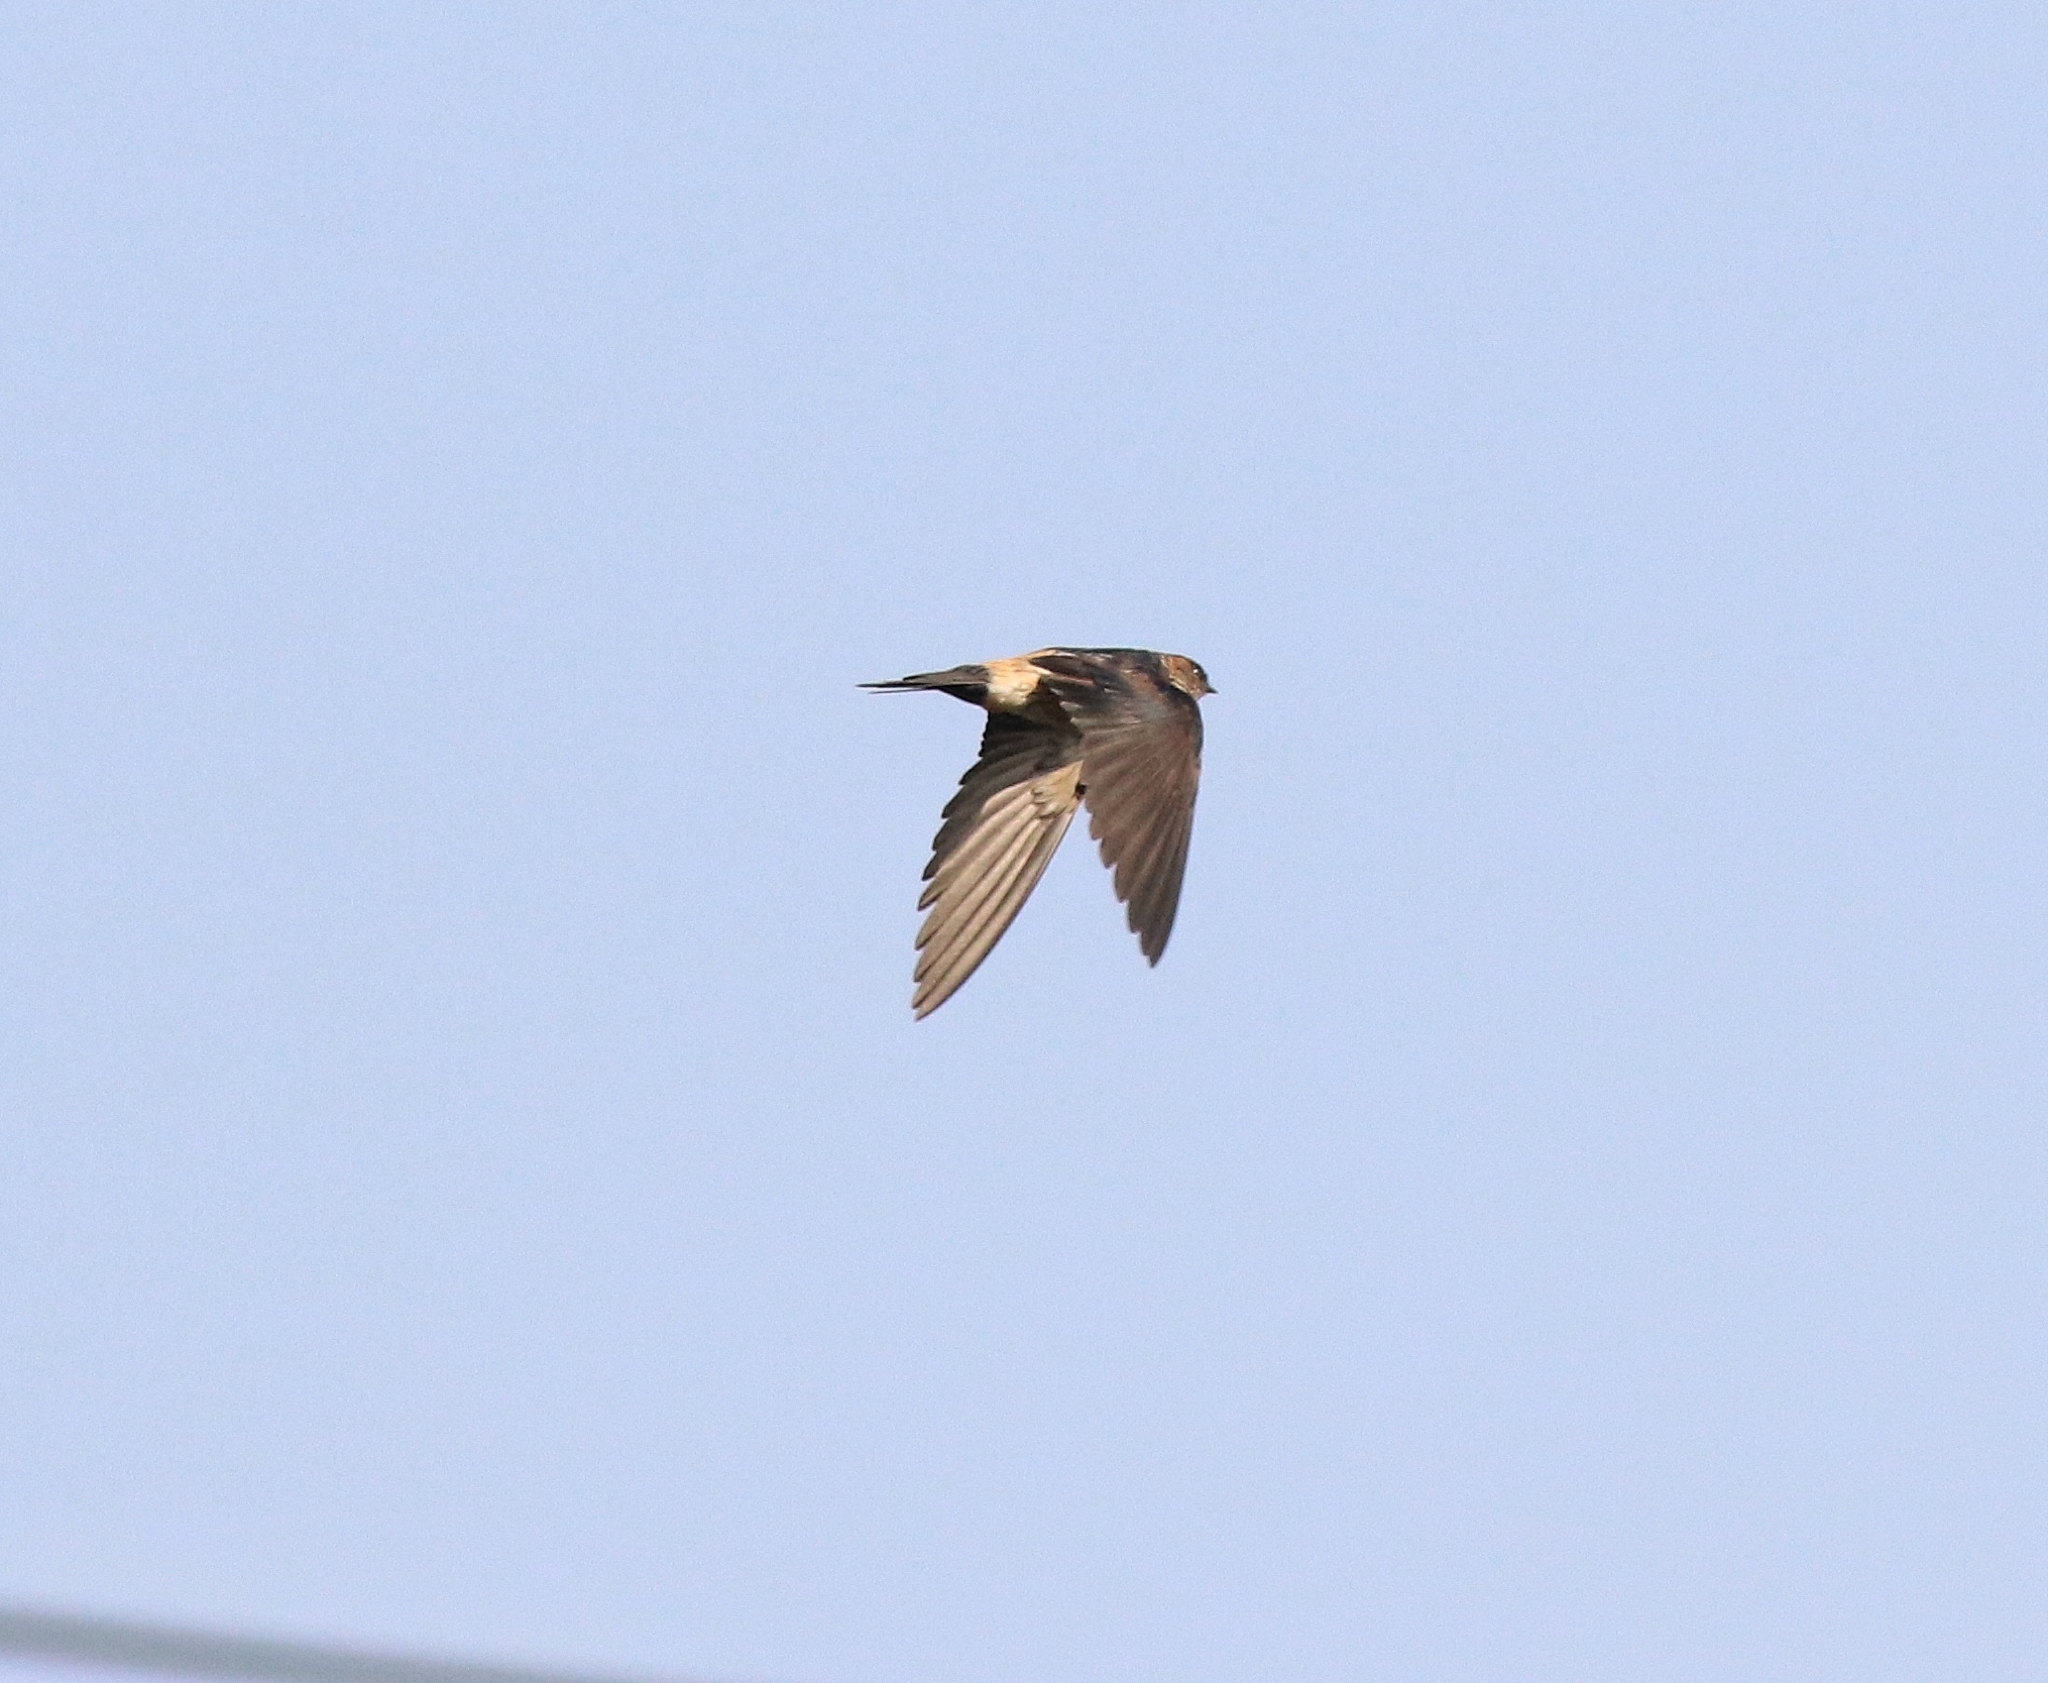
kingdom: Animalia
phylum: Chordata
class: Aves
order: Passeriformes
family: Hirundinidae
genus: Cecropis
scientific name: Cecropis daurica
